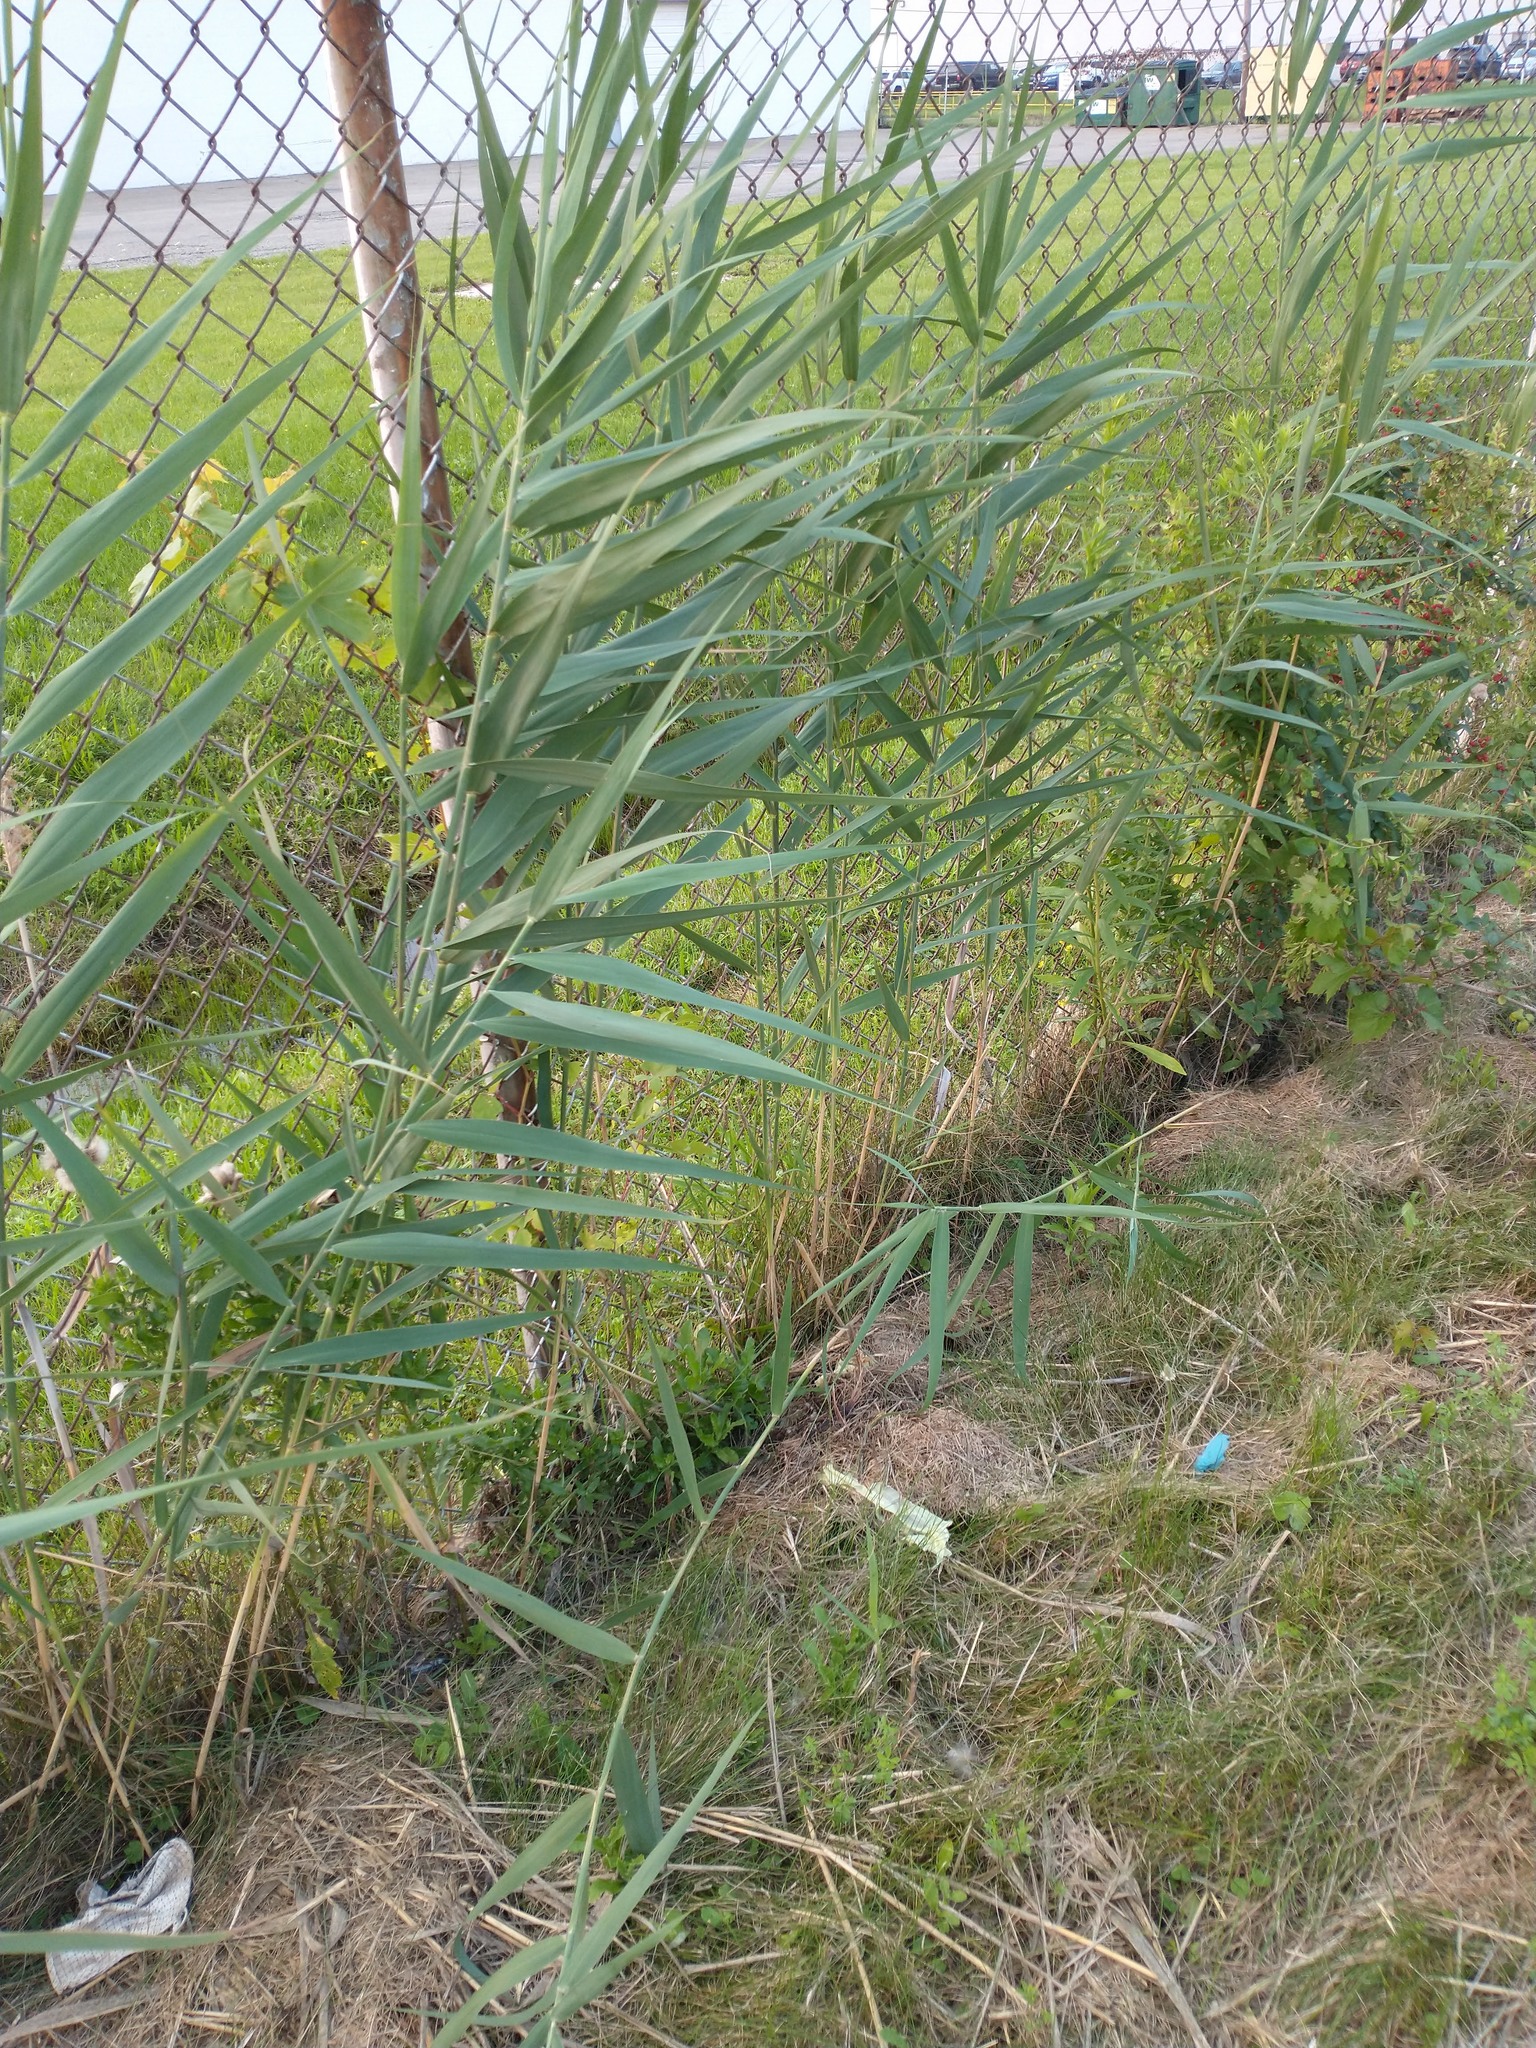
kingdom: Plantae
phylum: Tracheophyta
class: Liliopsida
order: Poales
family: Poaceae
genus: Phragmites
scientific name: Phragmites australis
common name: Common reed
